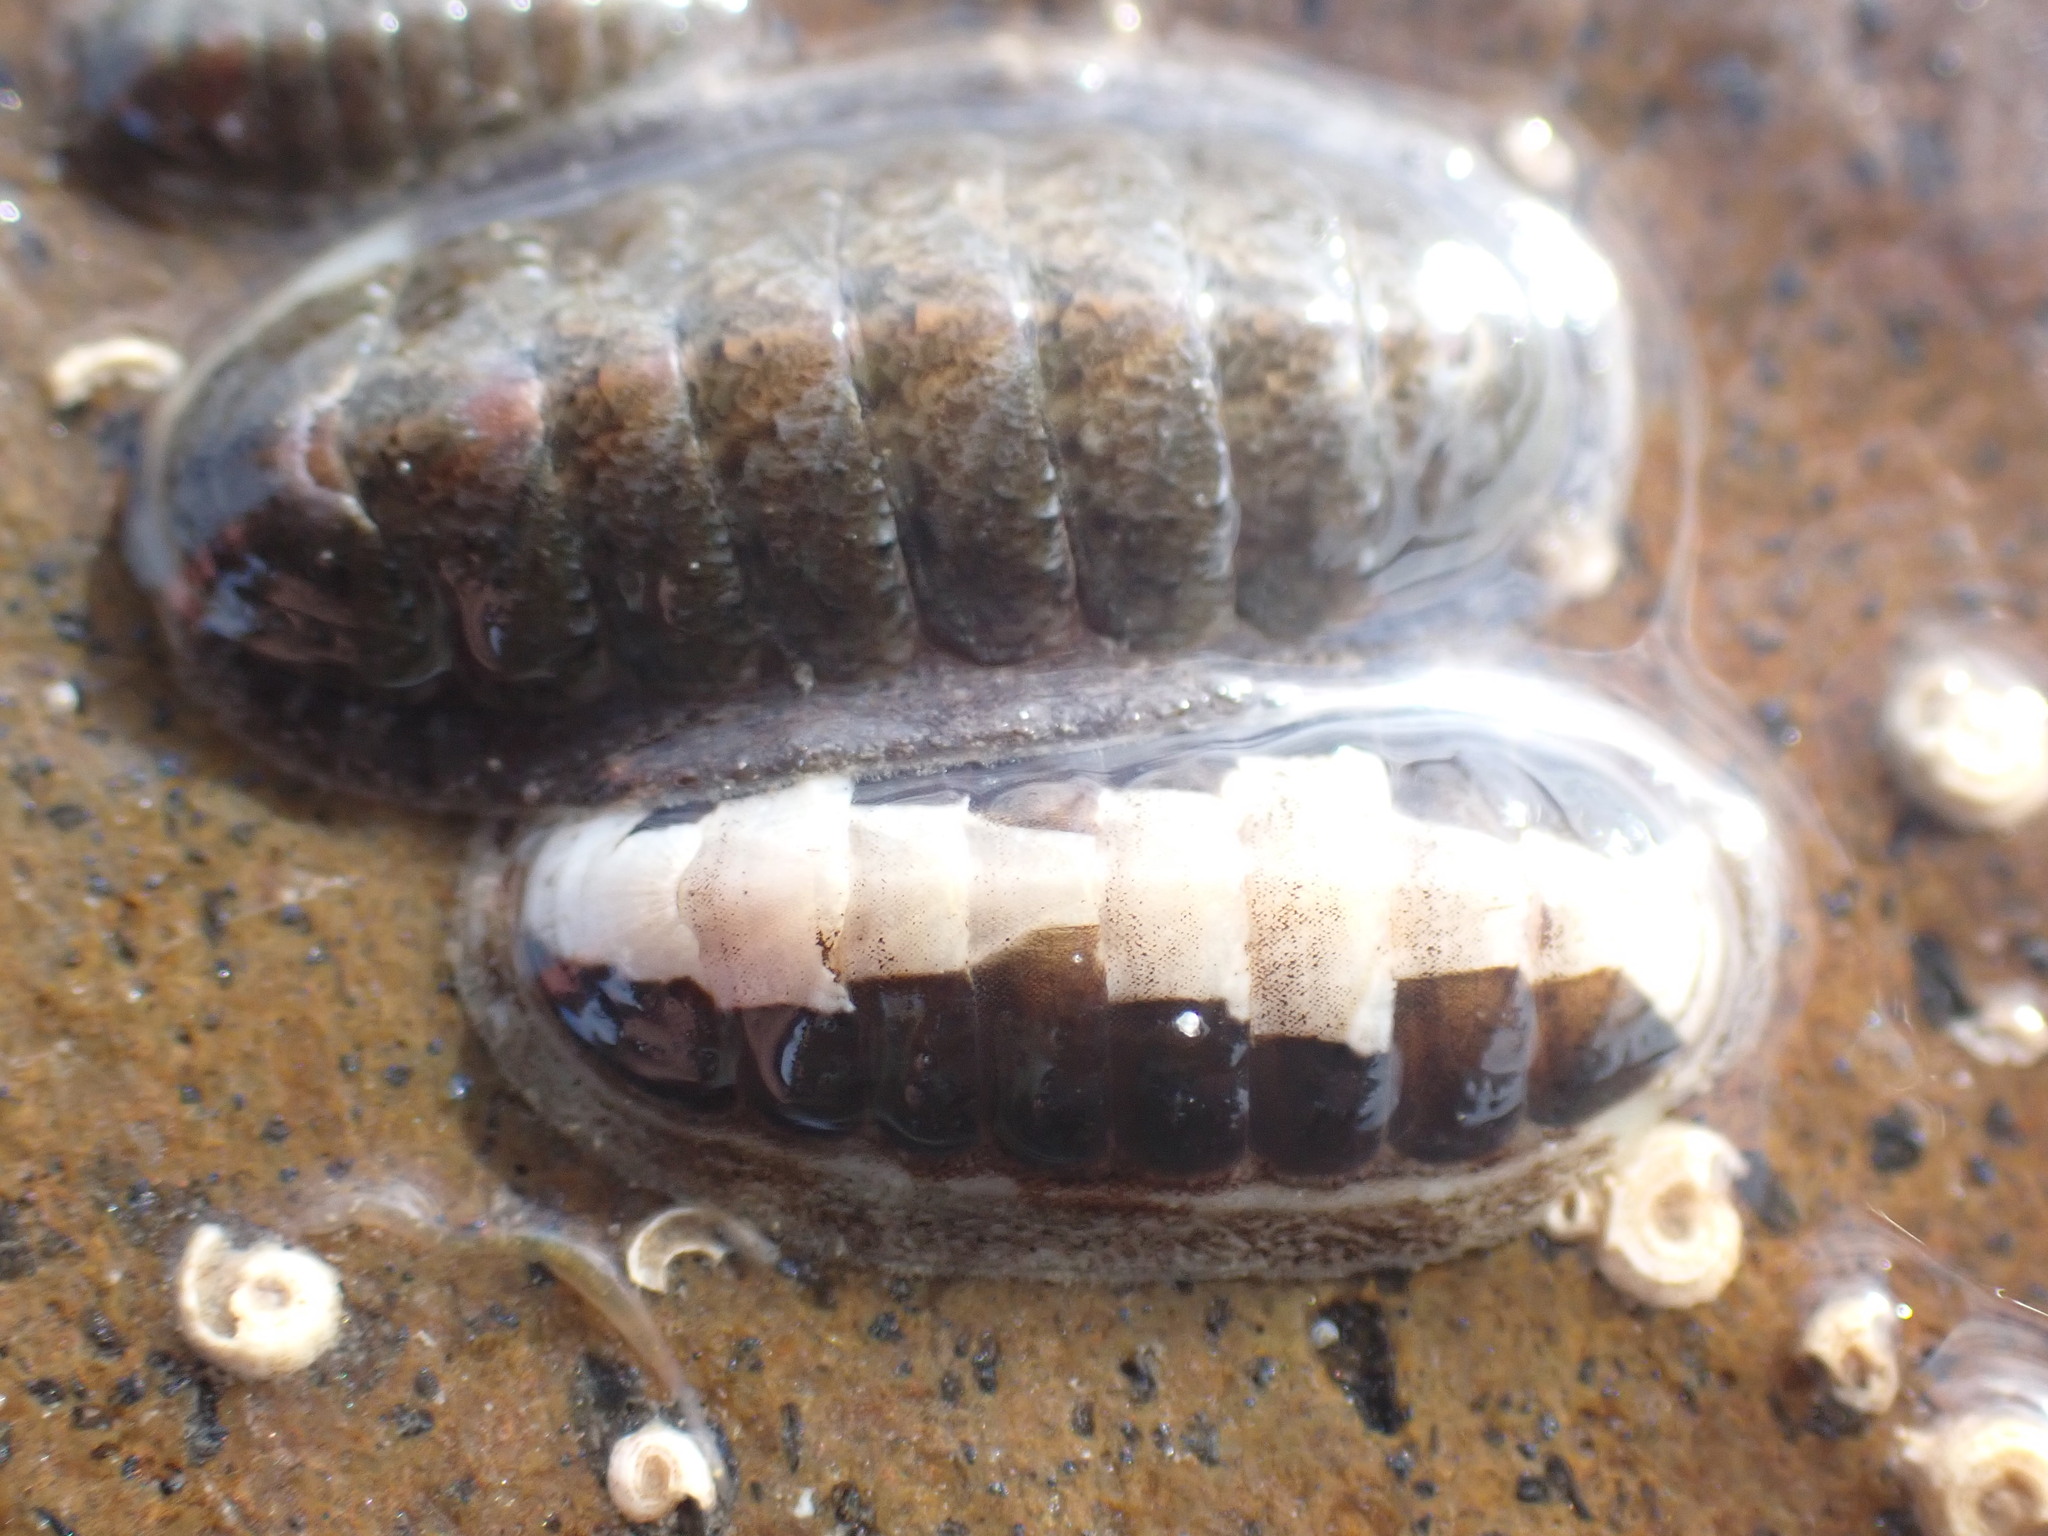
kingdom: Animalia
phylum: Mollusca
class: Polyplacophora
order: Chitonida
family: Ischnochitonidae
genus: Ischnochiton
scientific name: Ischnochiton maorianus
